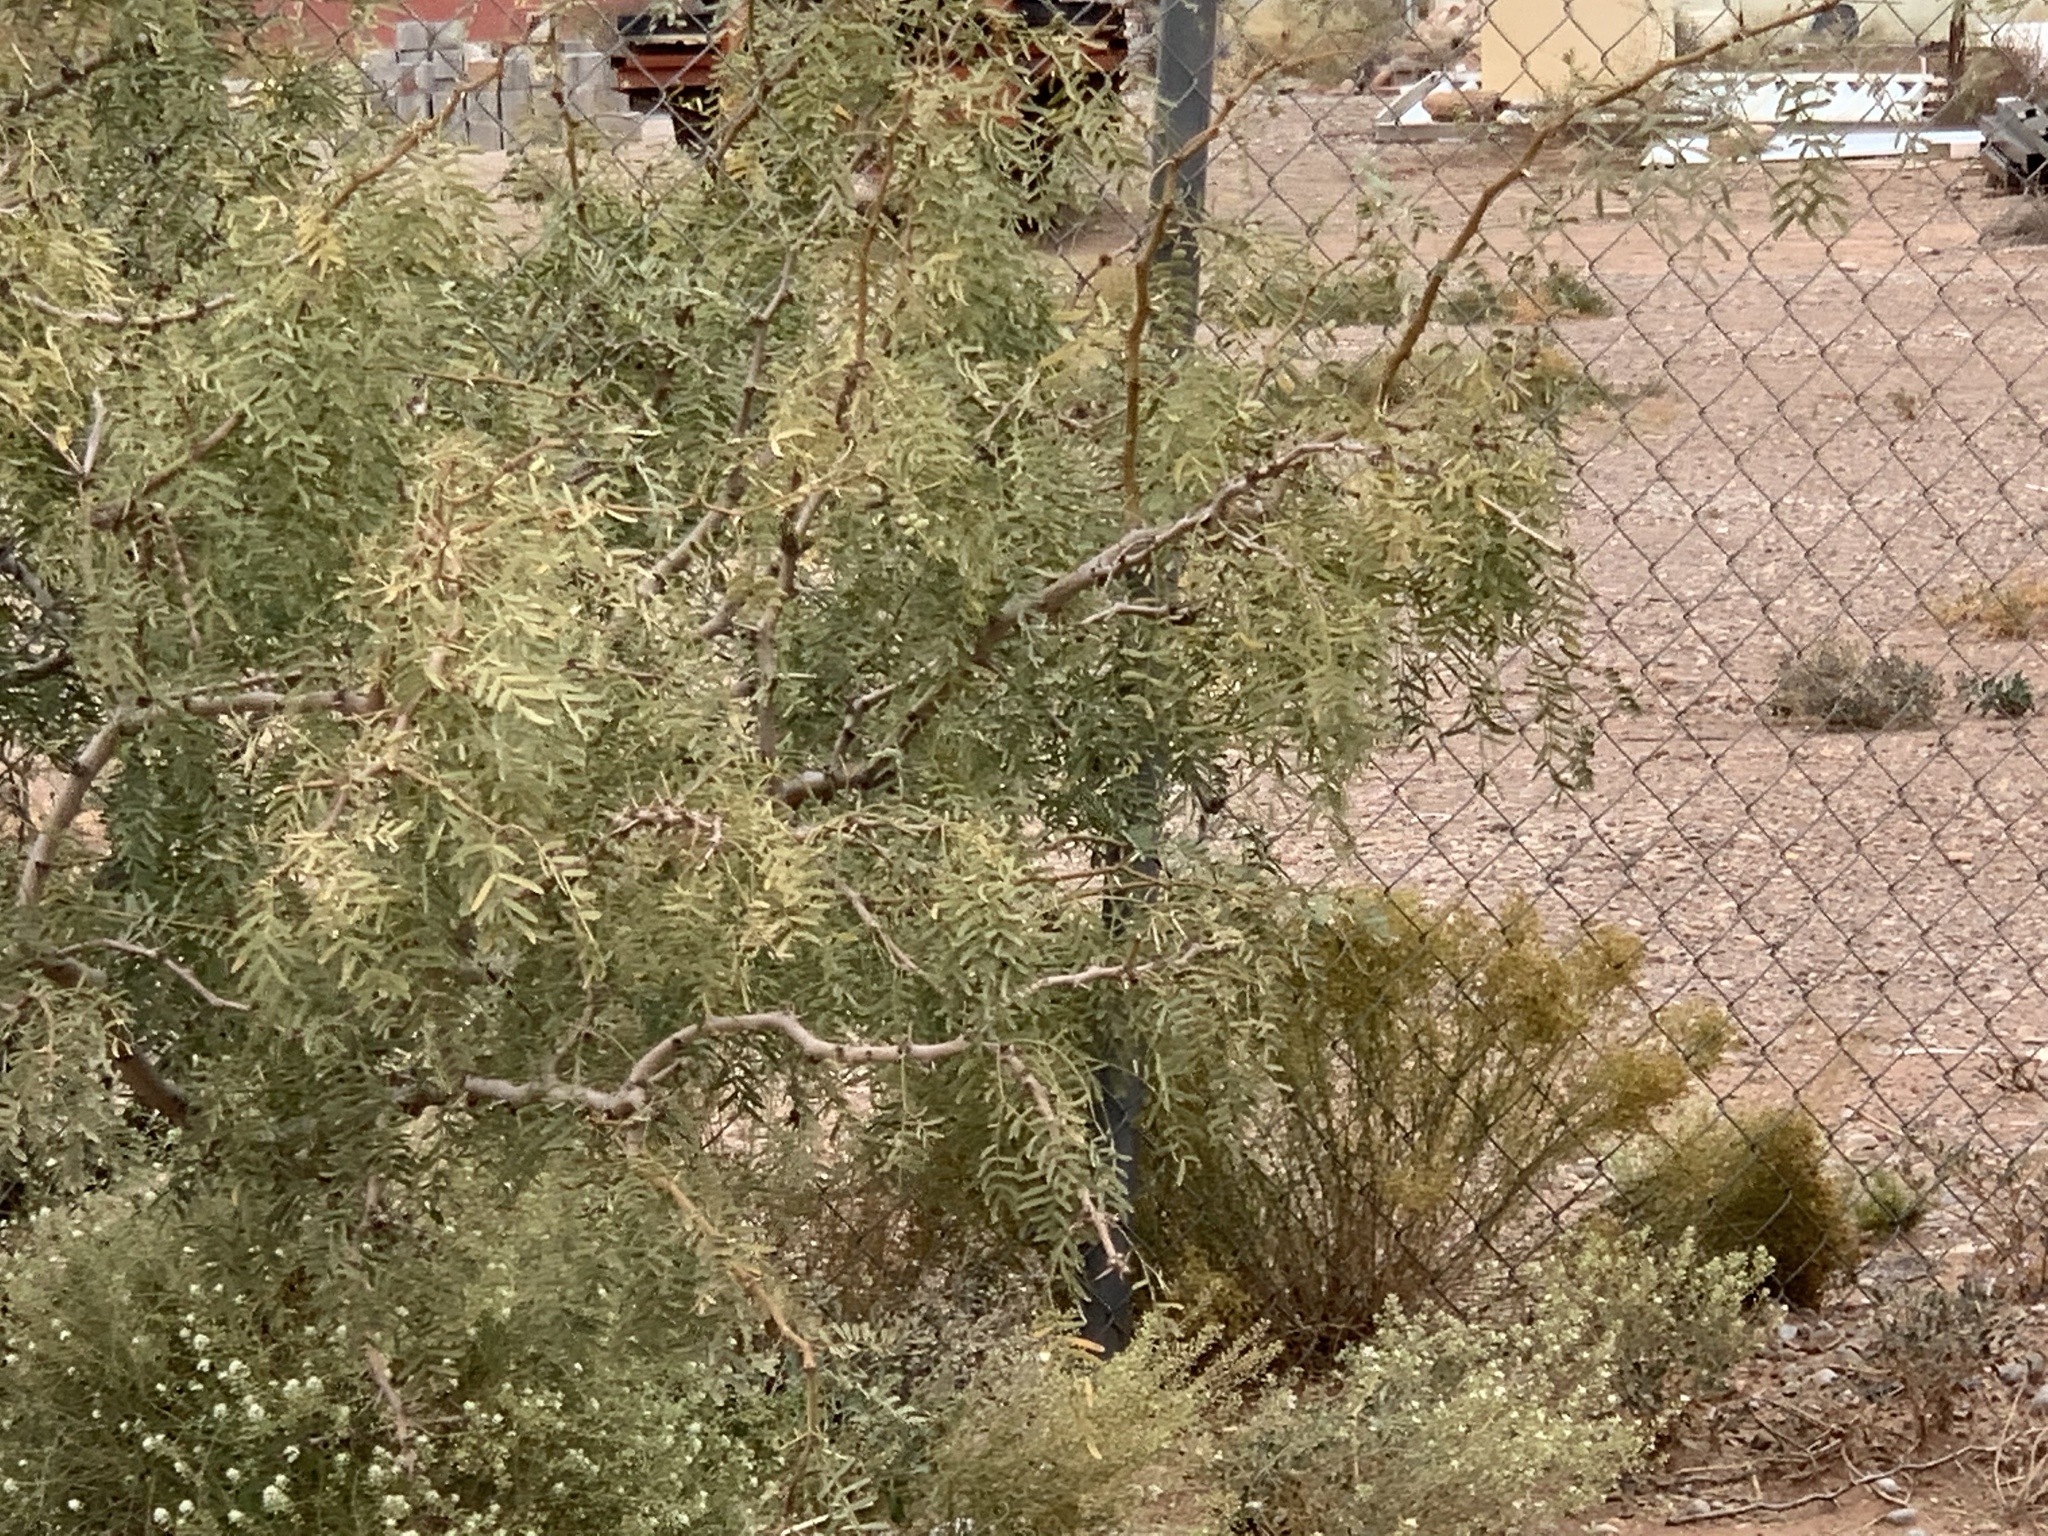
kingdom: Plantae
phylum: Tracheophyta
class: Magnoliopsida
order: Fabales
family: Fabaceae
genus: Prosopis
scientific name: Prosopis glandulosa
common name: Honey mesquite
